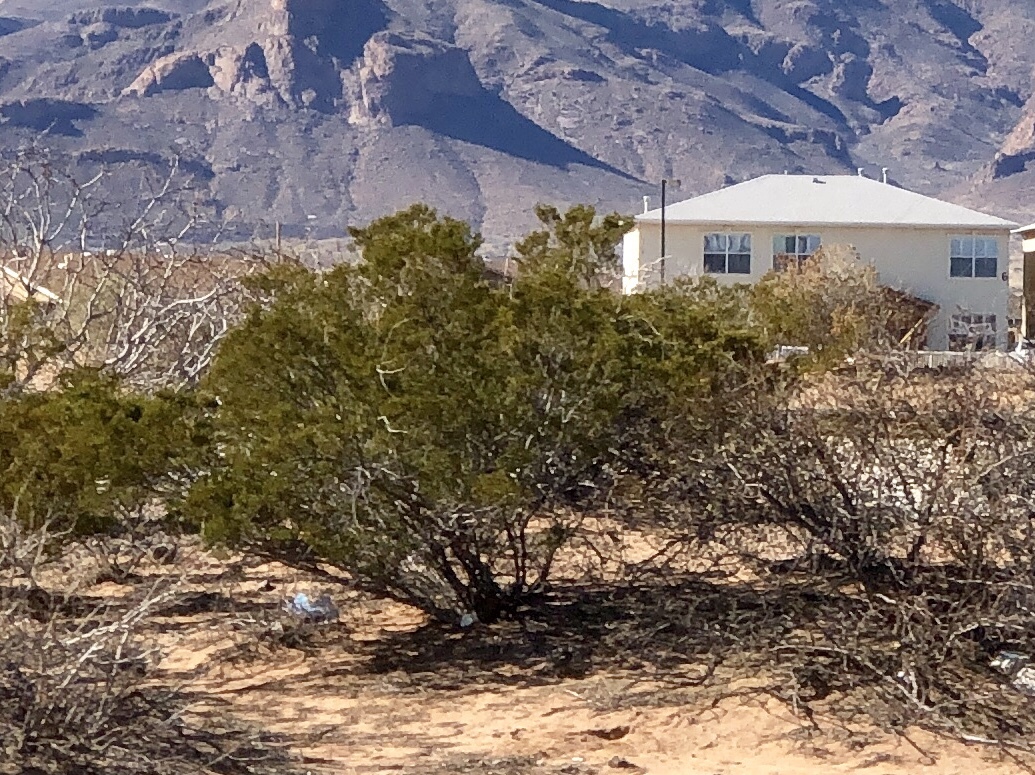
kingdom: Plantae
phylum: Tracheophyta
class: Magnoliopsida
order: Zygophyllales
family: Zygophyllaceae
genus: Larrea
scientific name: Larrea tridentata
